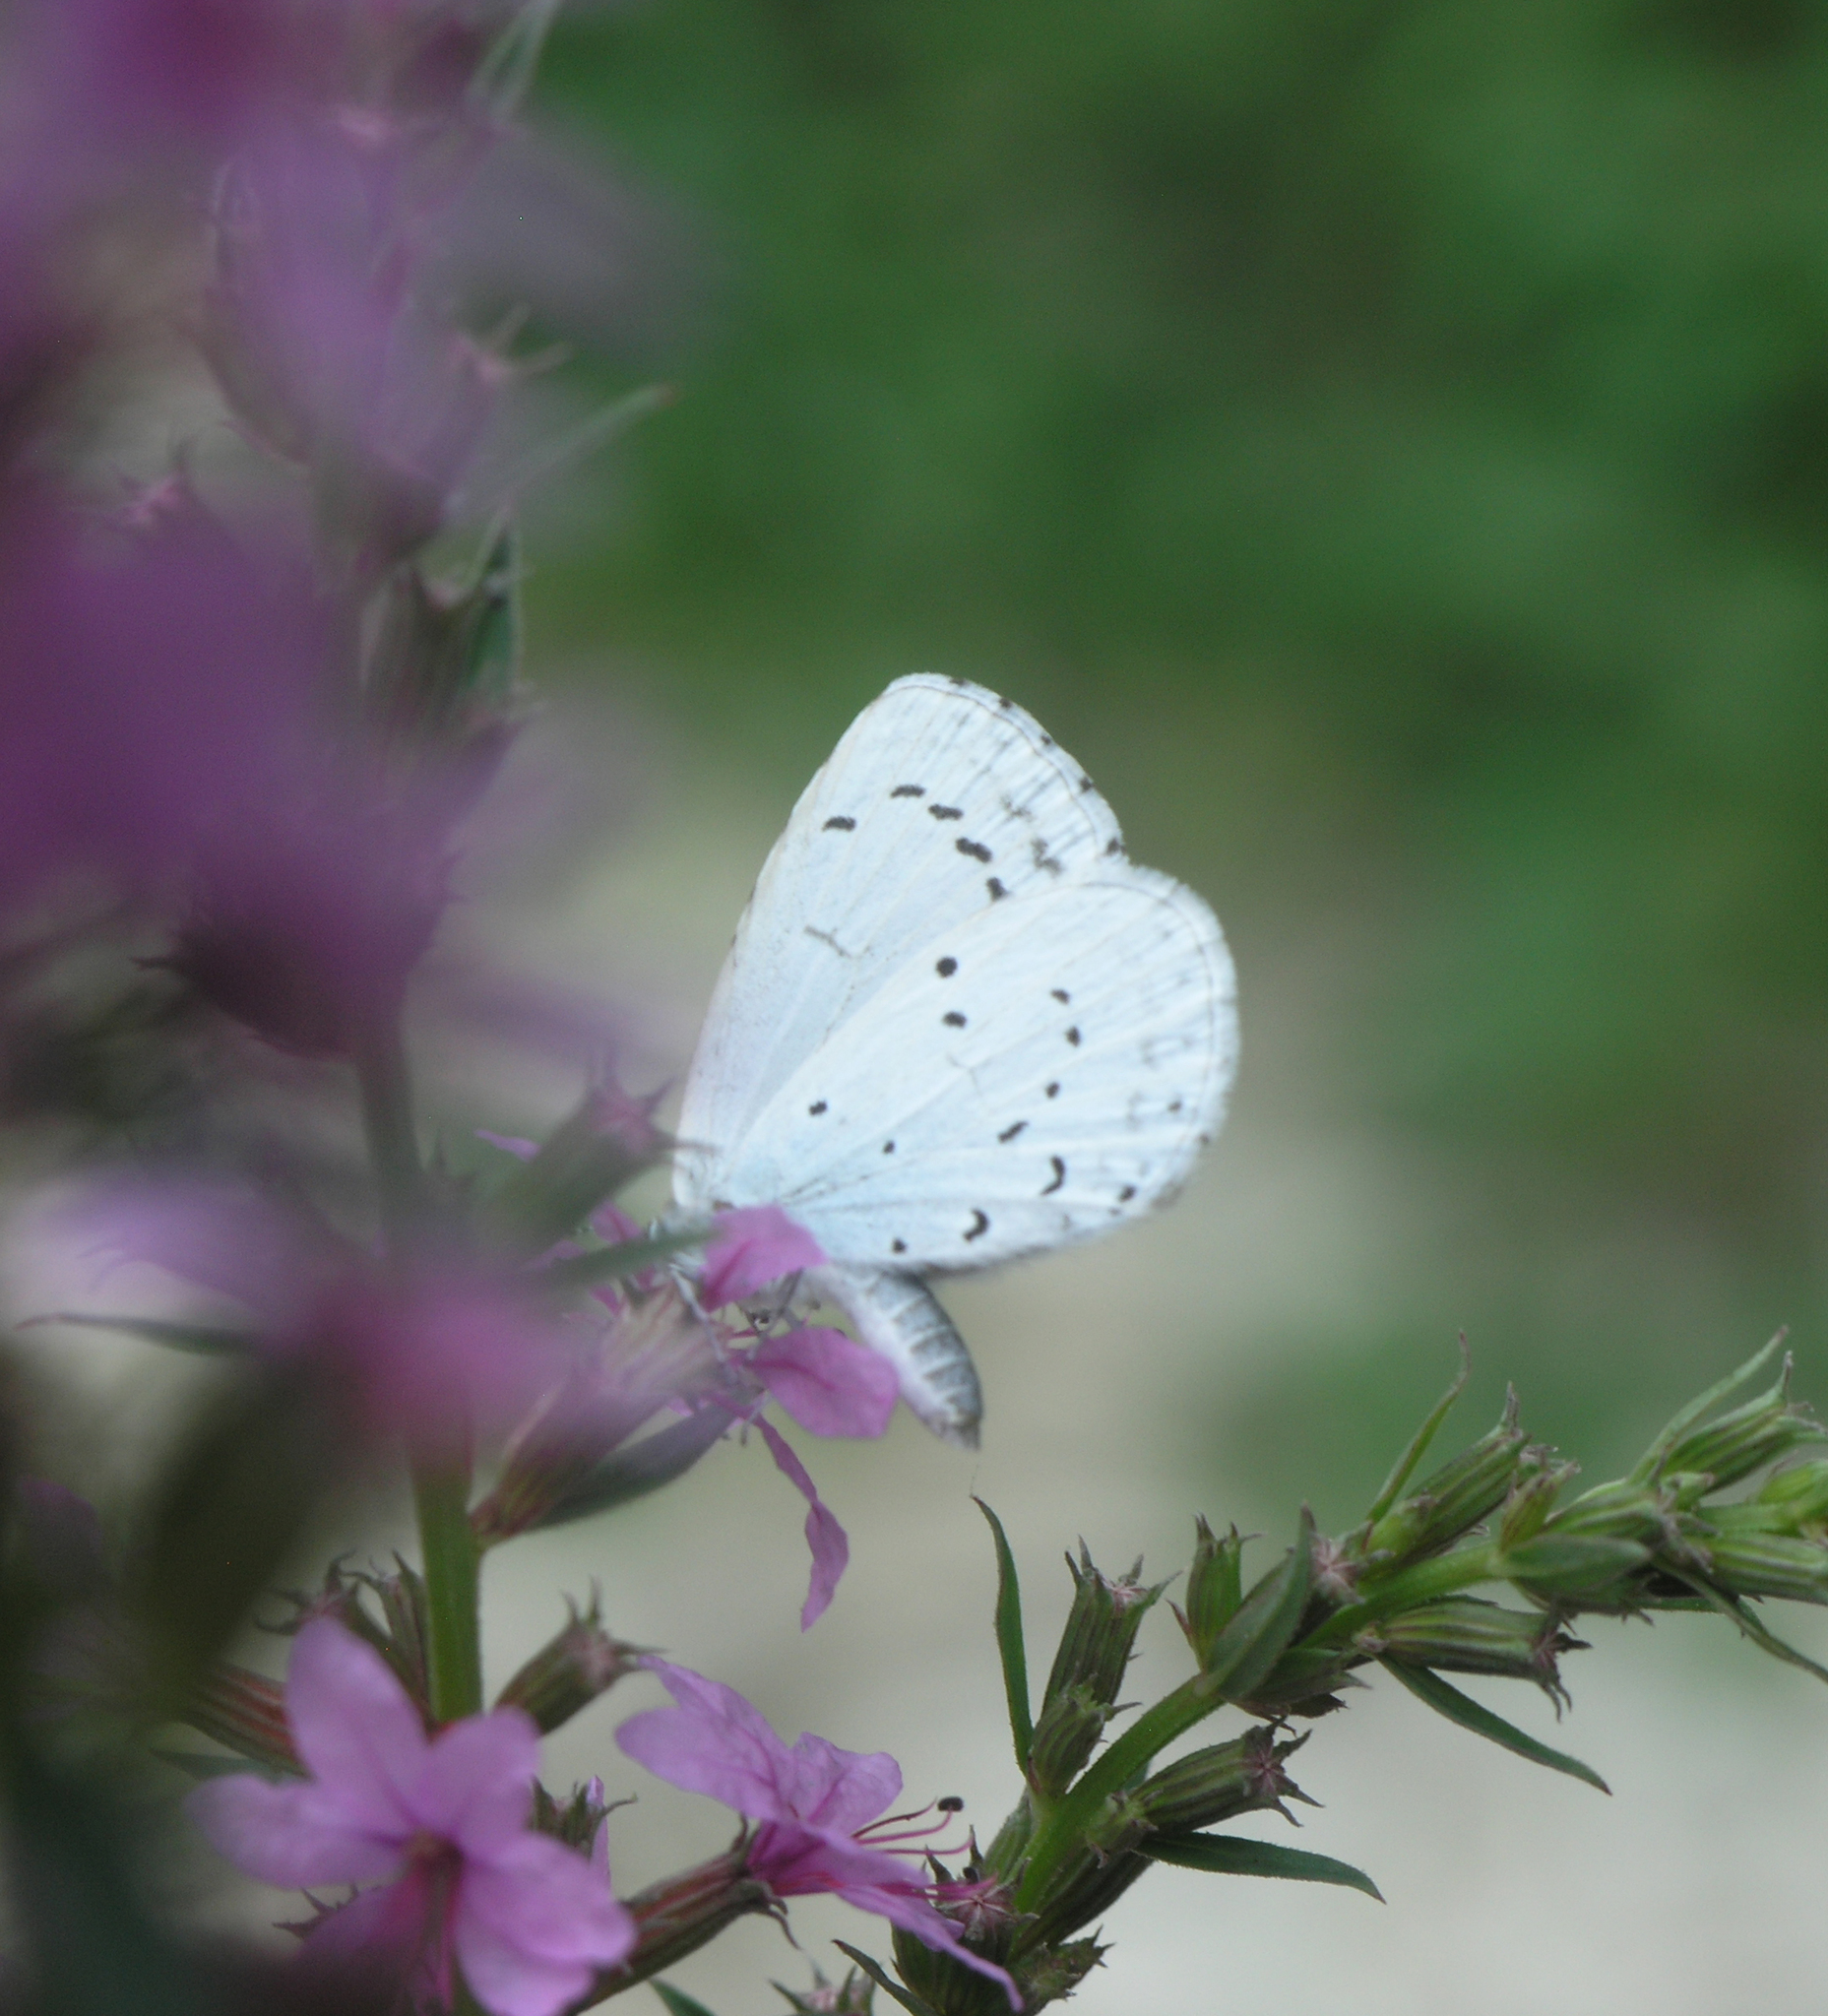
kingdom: Animalia
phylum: Arthropoda
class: Insecta
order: Lepidoptera
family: Lycaenidae
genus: Celastrina
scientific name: Celastrina argiolus
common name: Holly blue
